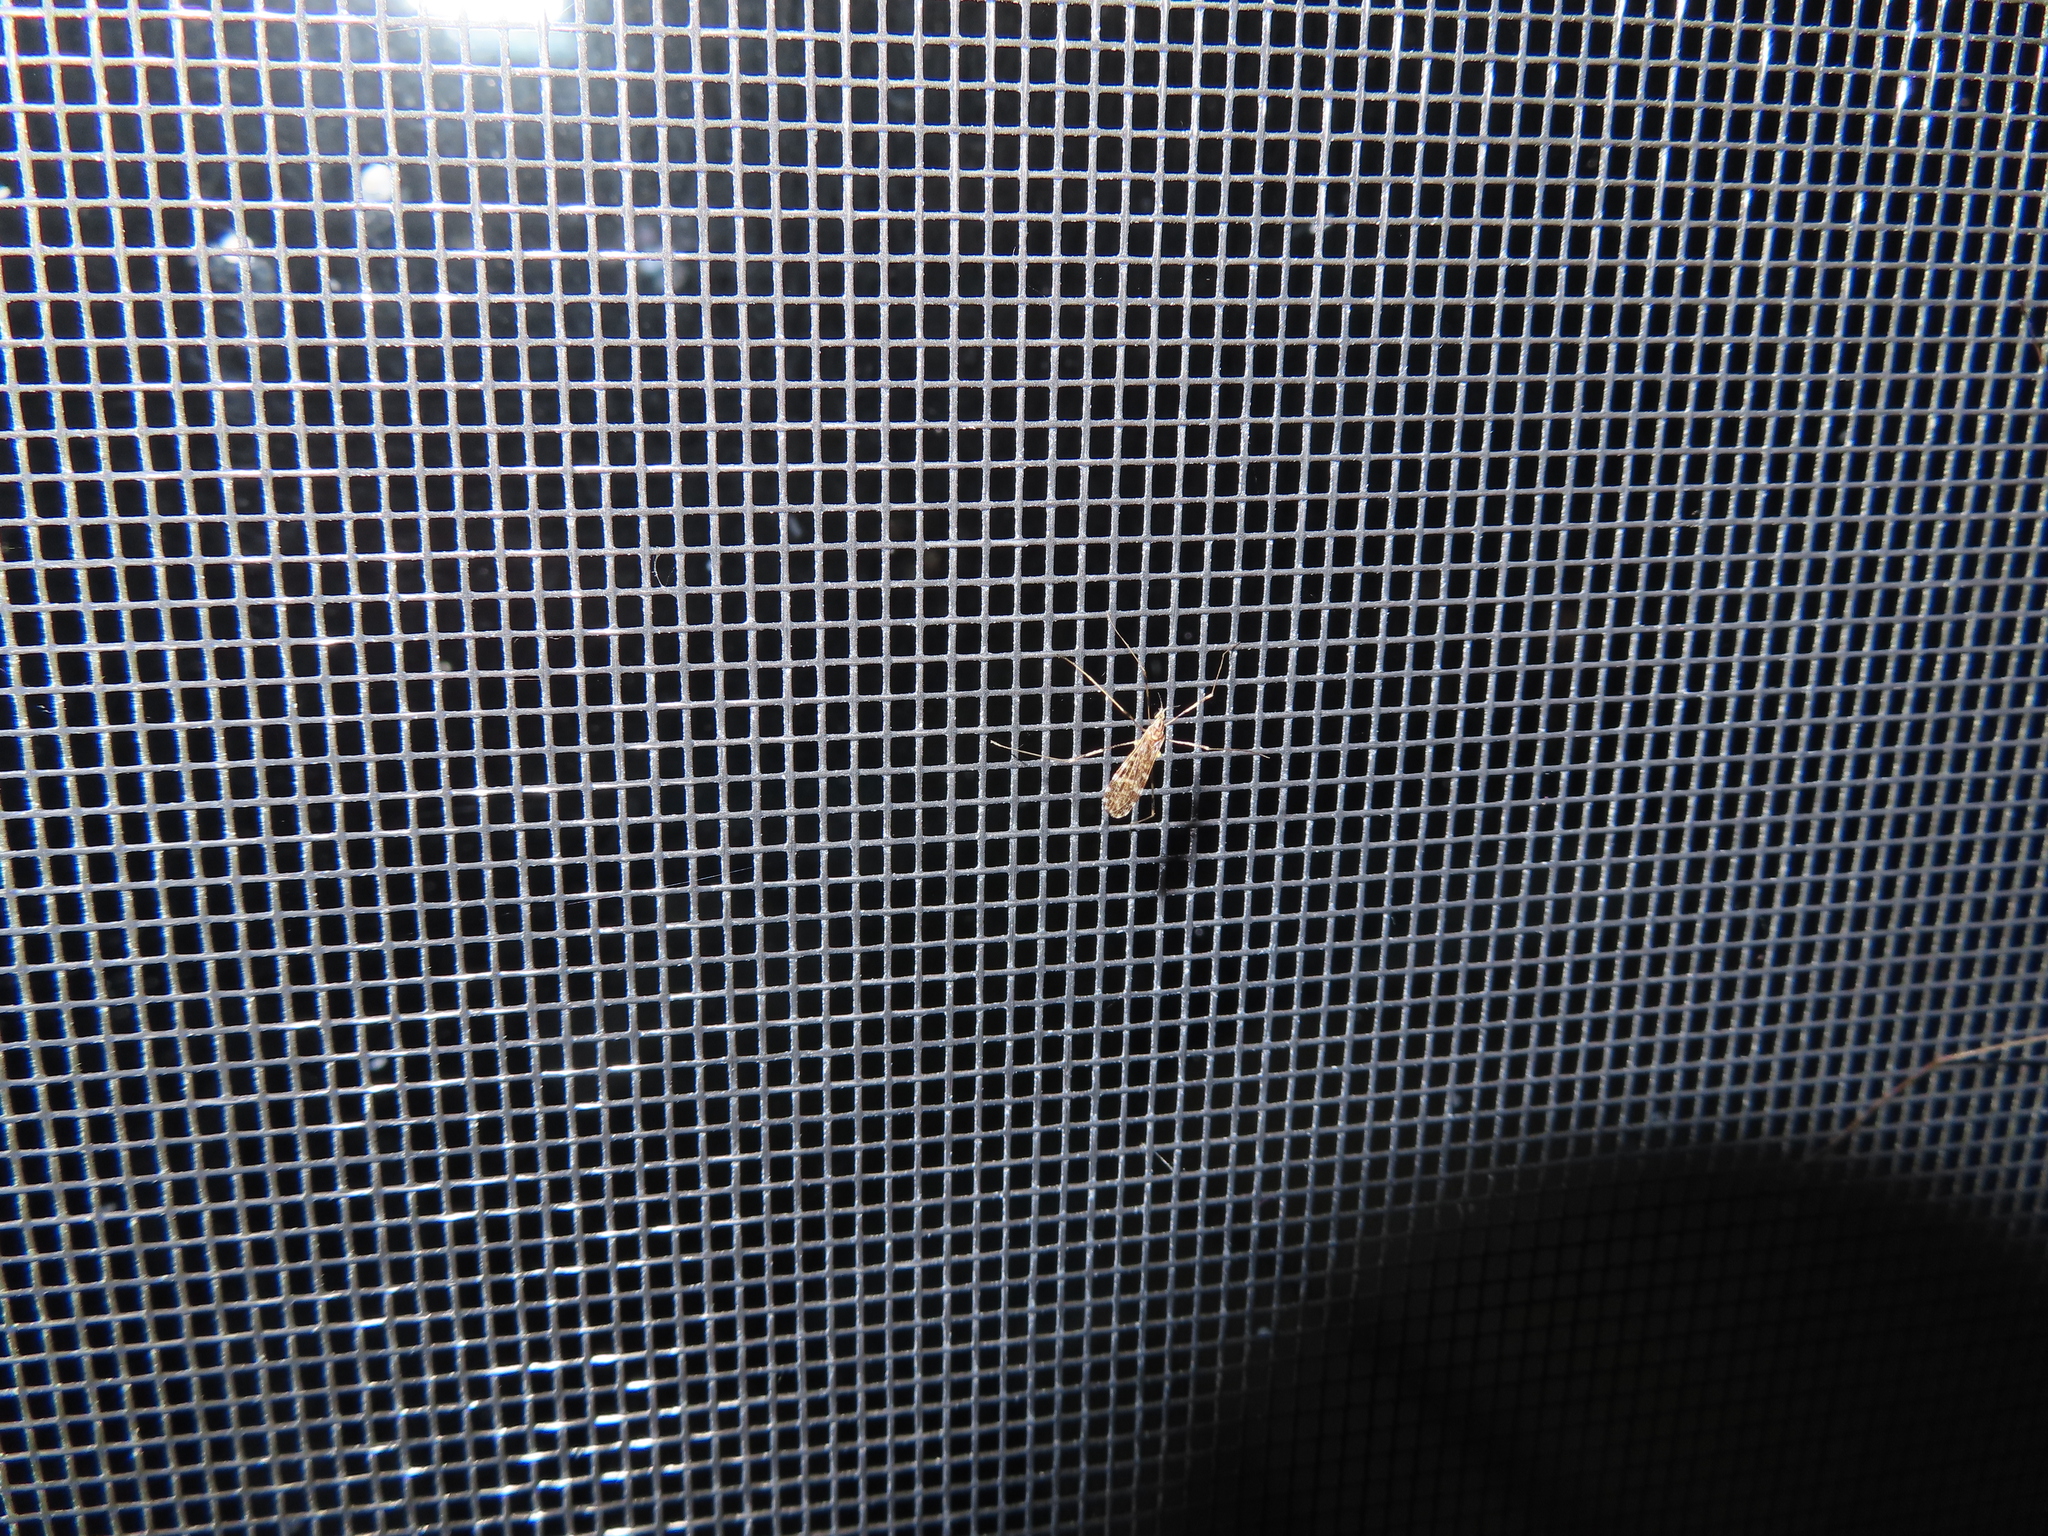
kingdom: Animalia
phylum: Arthropoda
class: Insecta
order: Diptera
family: Limoniidae
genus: Erioptera
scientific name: Erioptera caliptera
